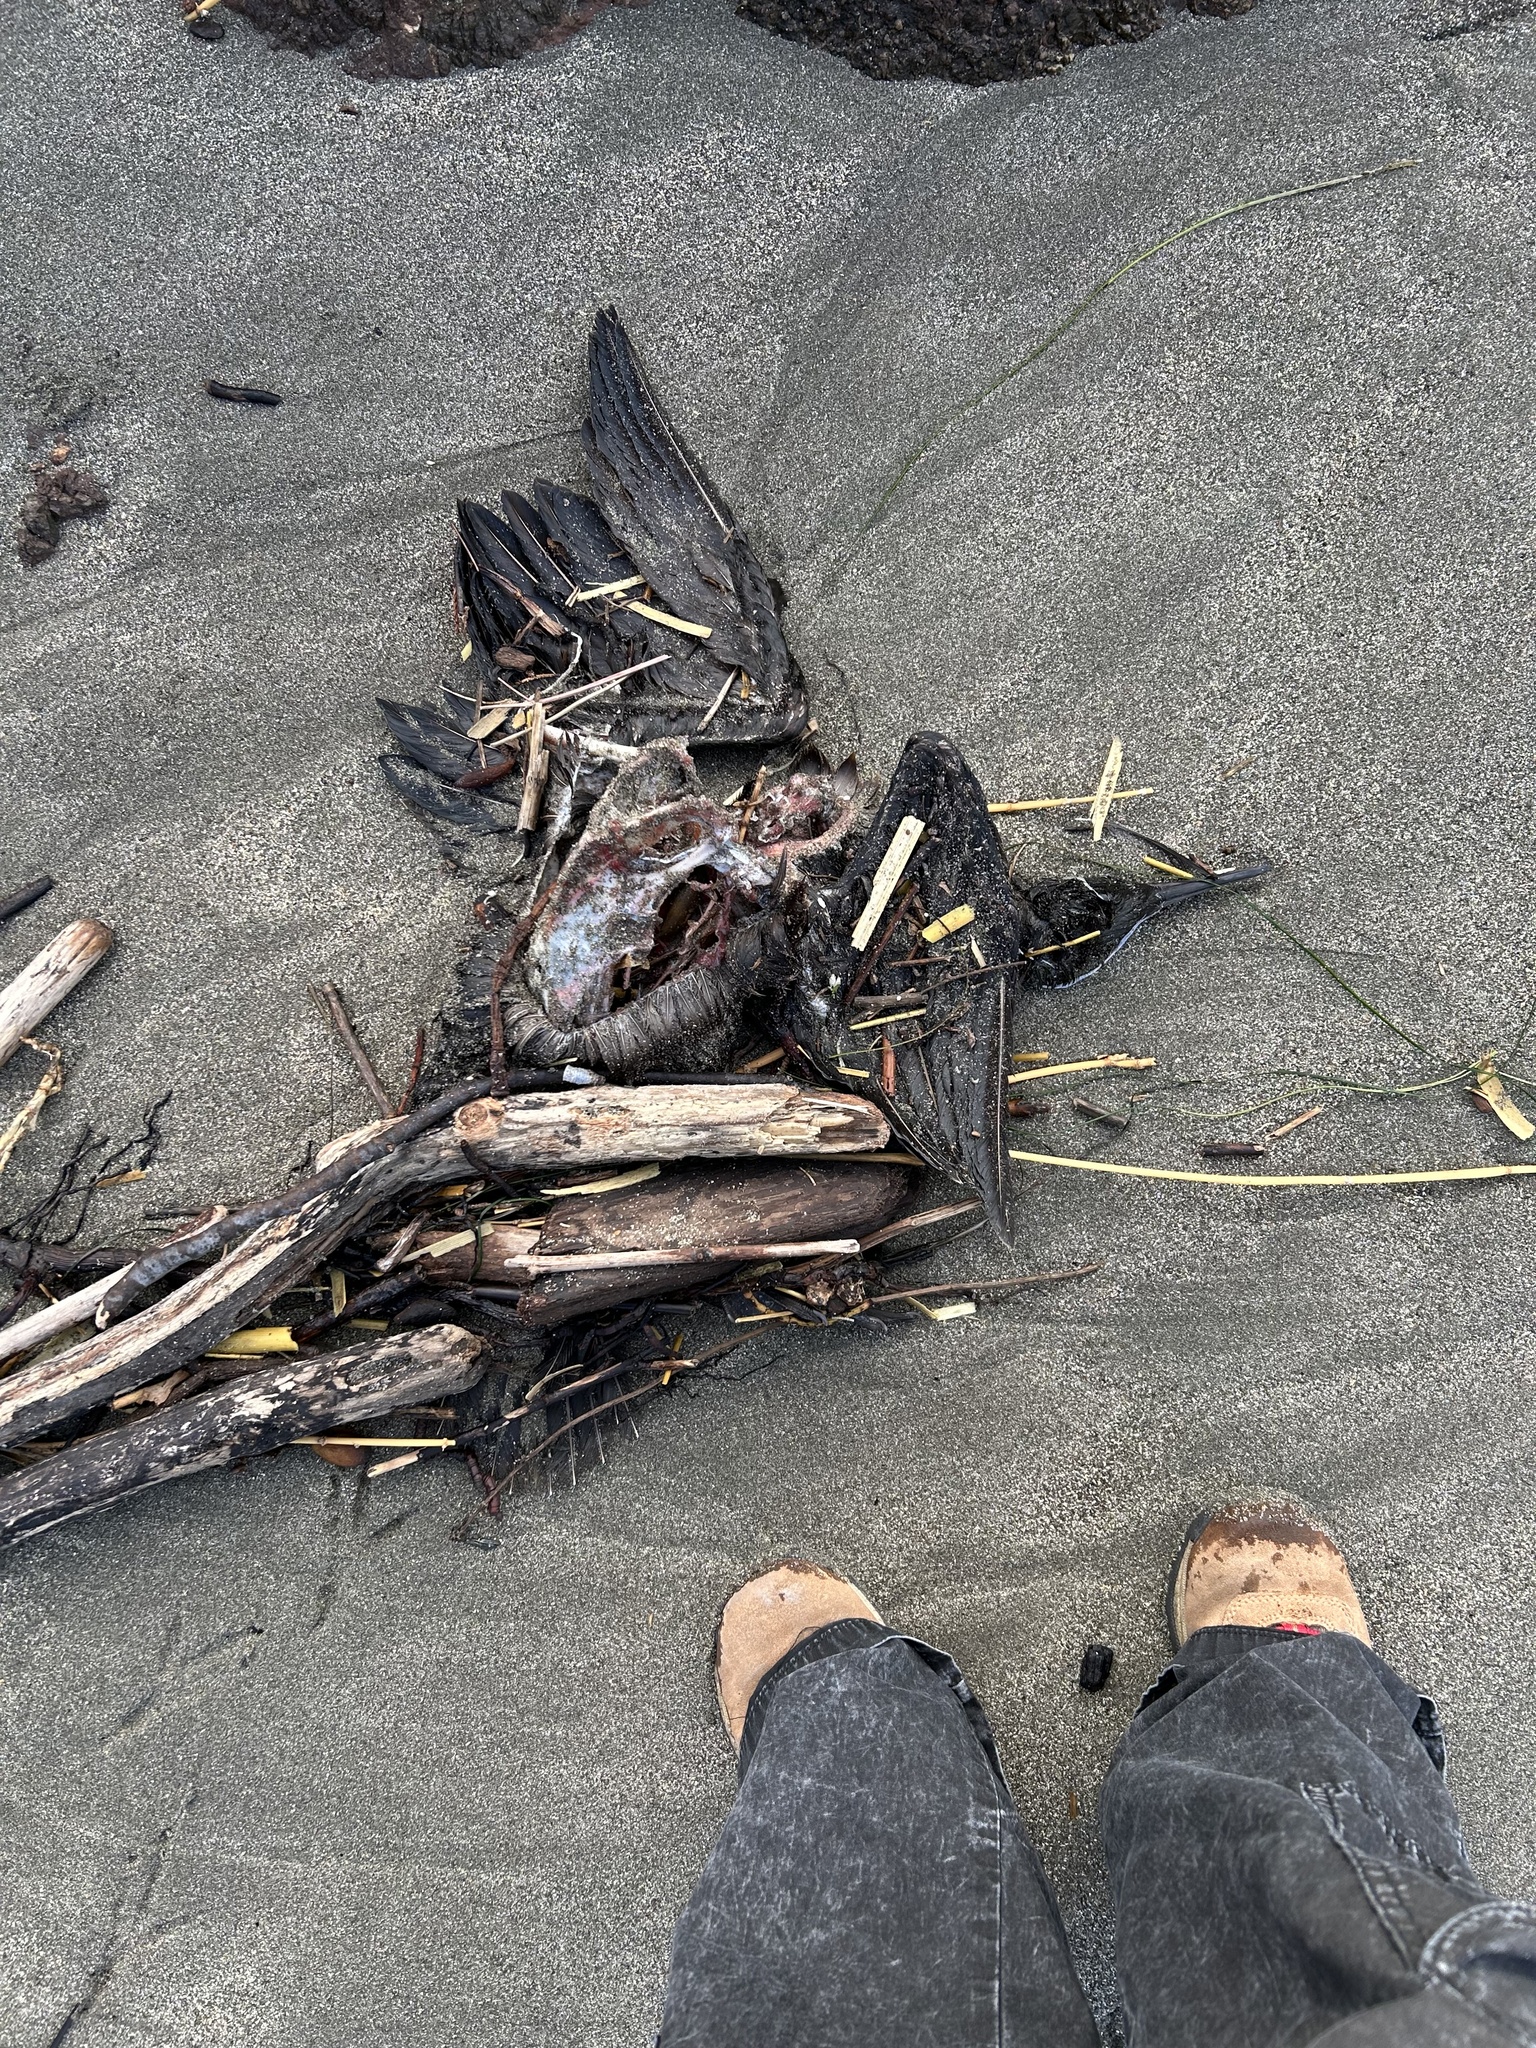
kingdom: Animalia
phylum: Chordata
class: Aves
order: Suliformes
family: Phalacrocoracidae
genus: Urile
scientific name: Urile penicillatus
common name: Brandt's cormorant
